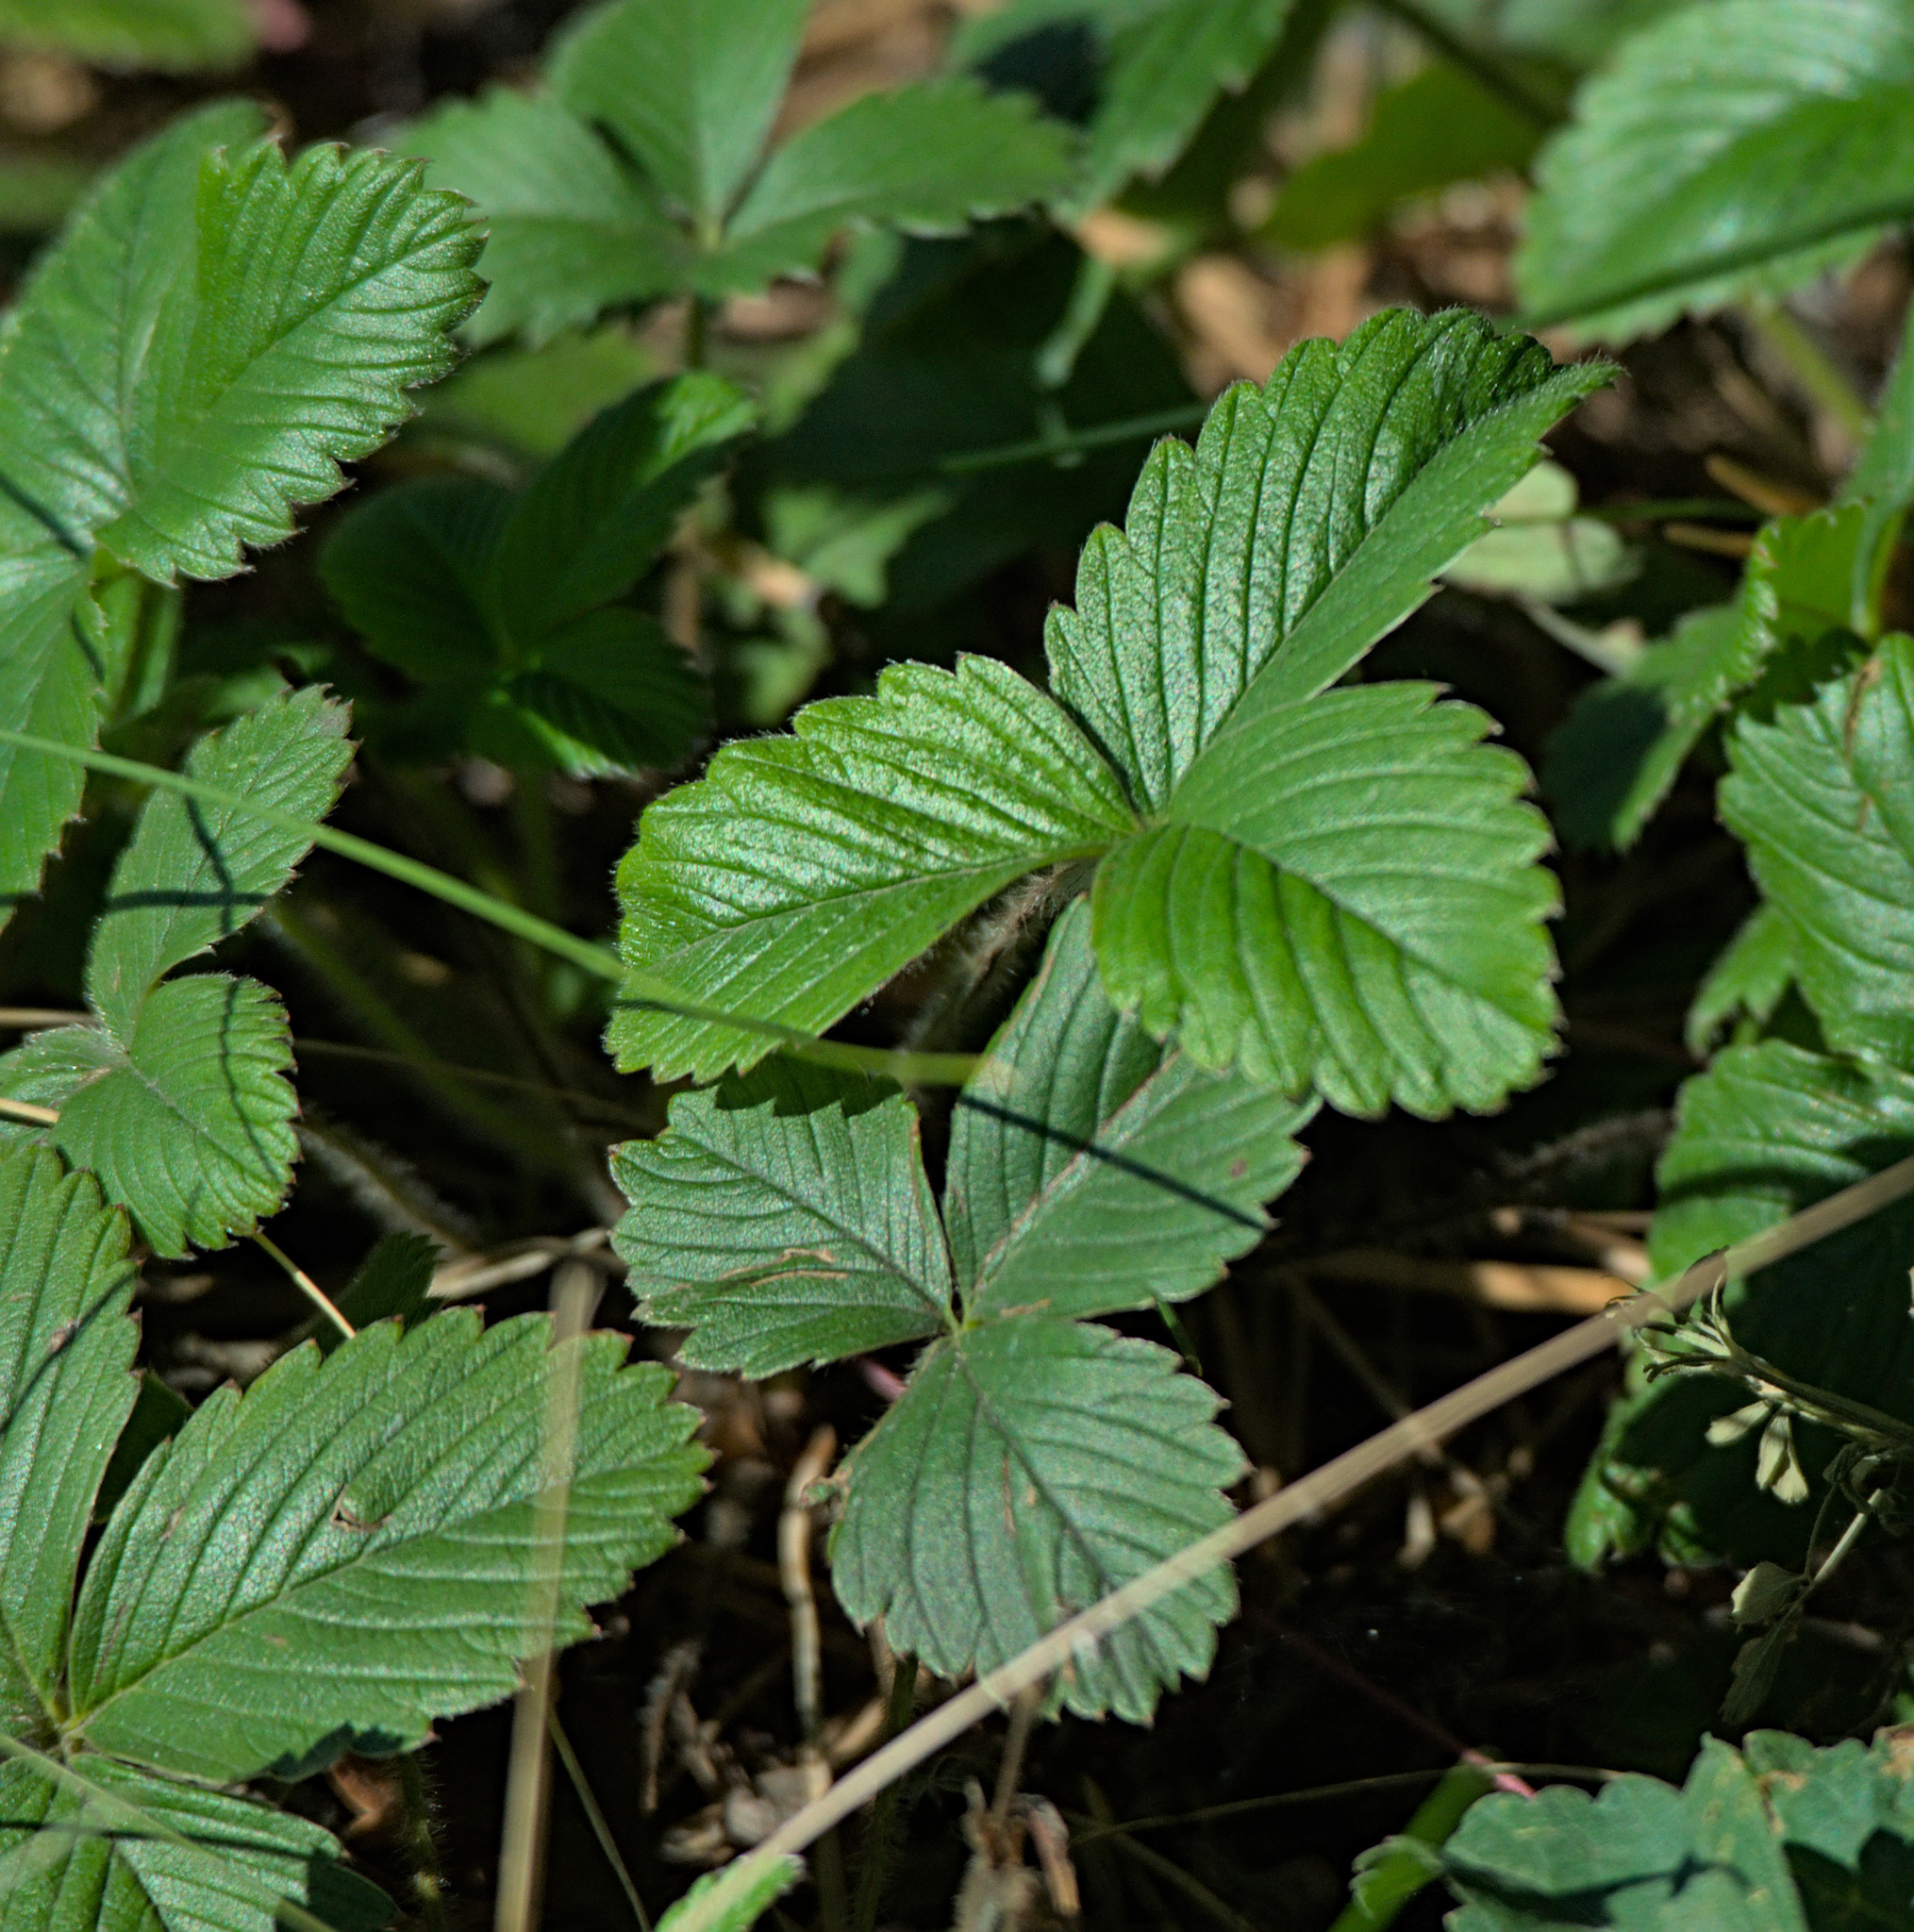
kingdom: Plantae
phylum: Tracheophyta
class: Magnoliopsida
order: Rosales
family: Rosaceae
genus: Fragaria
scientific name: Fragaria viridis
